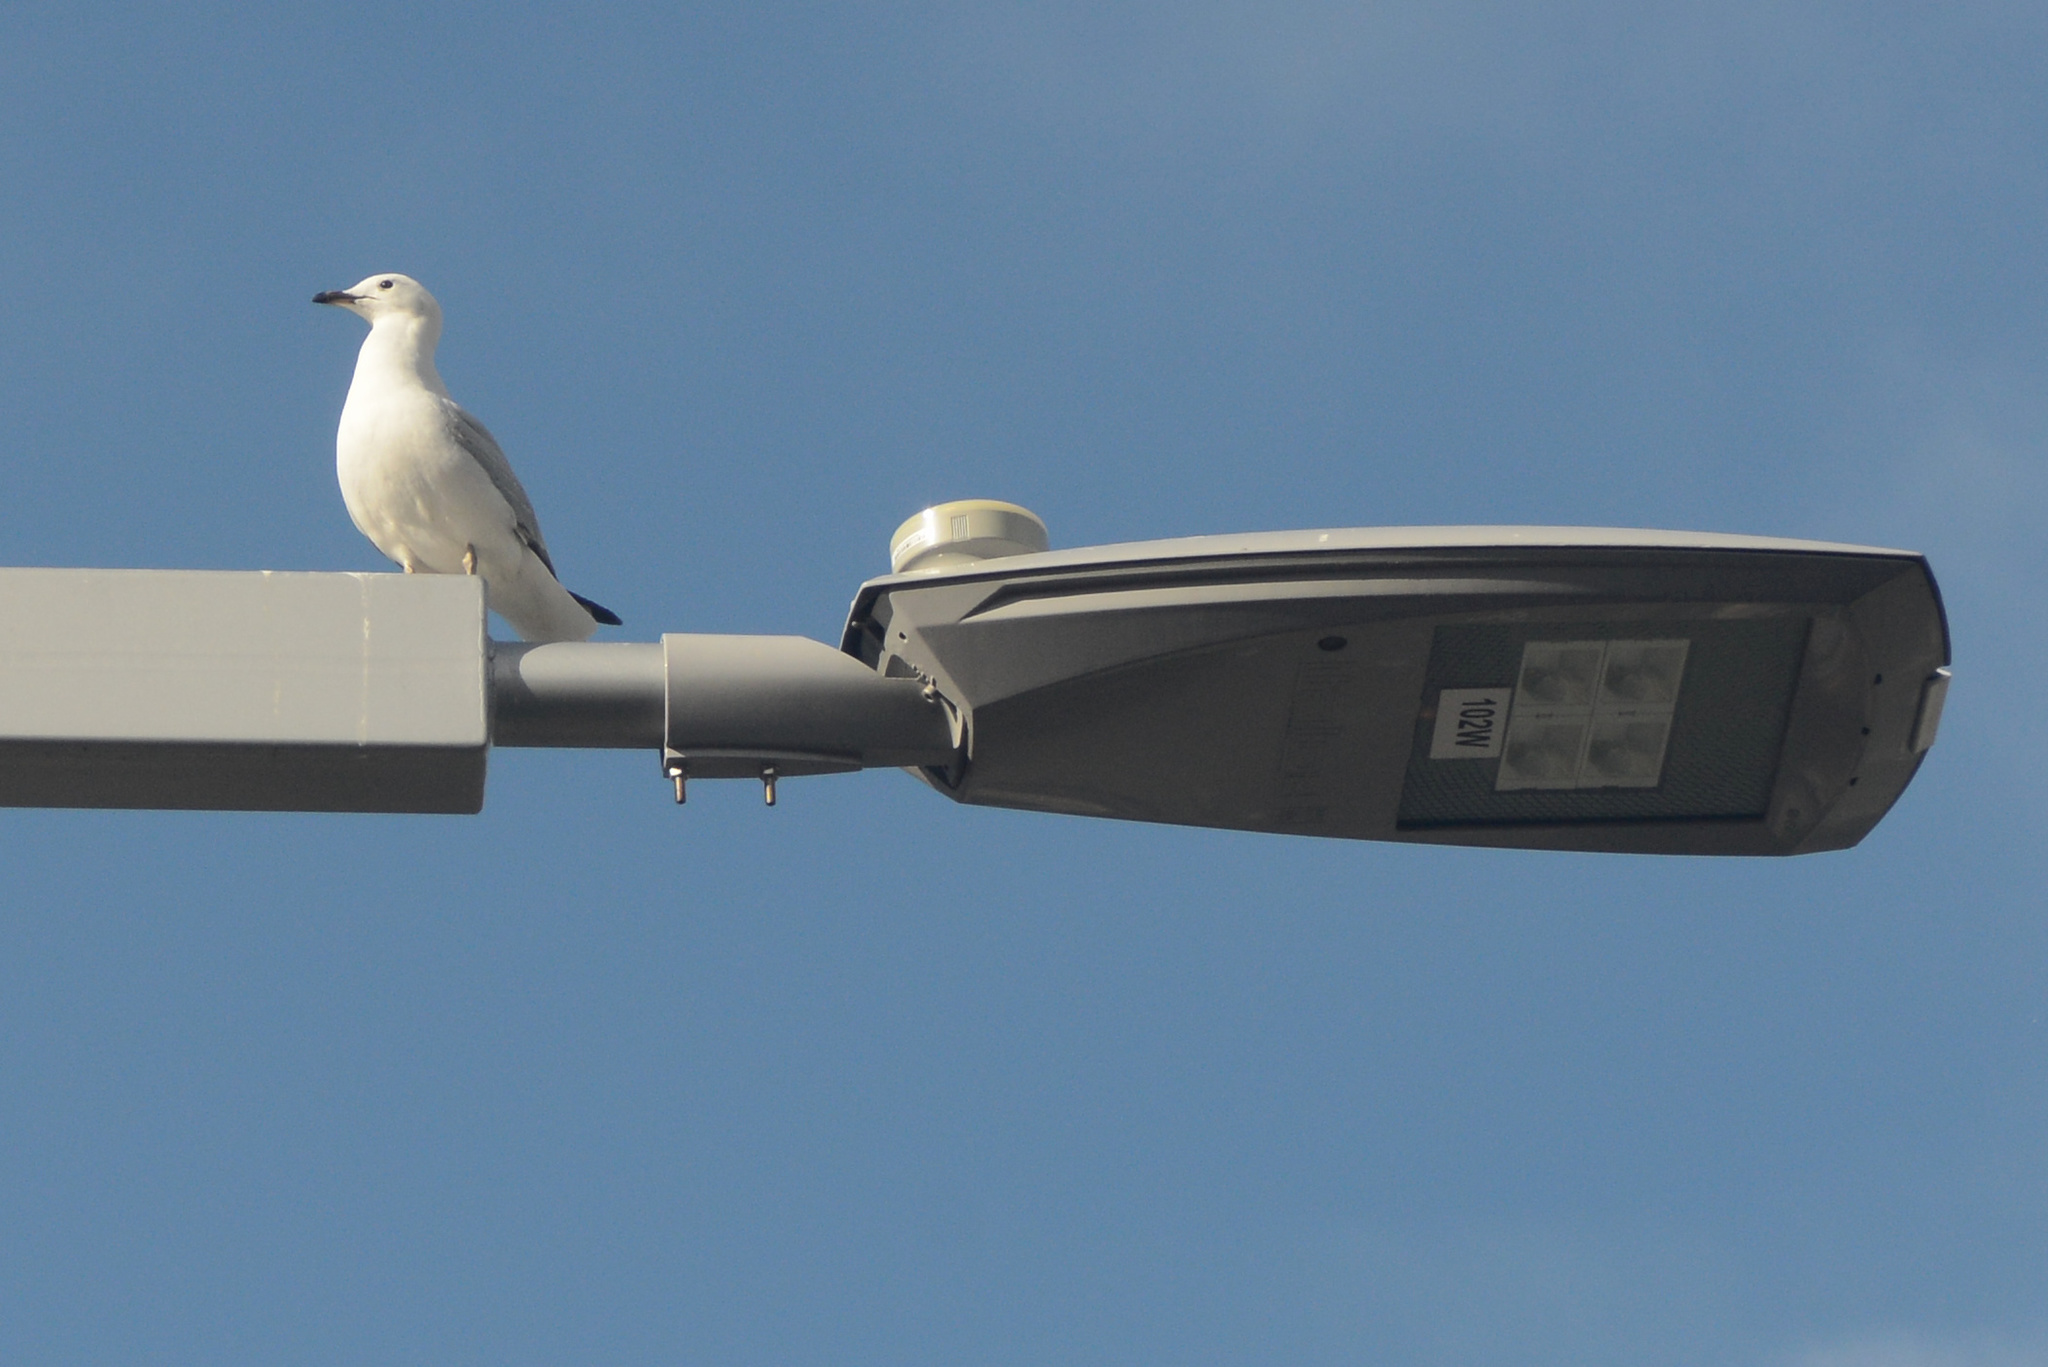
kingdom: Animalia
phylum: Chordata
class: Aves
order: Charadriiformes
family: Laridae
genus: Chroicocephalus
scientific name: Chroicocephalus novaehollandiae
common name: Silver gull
